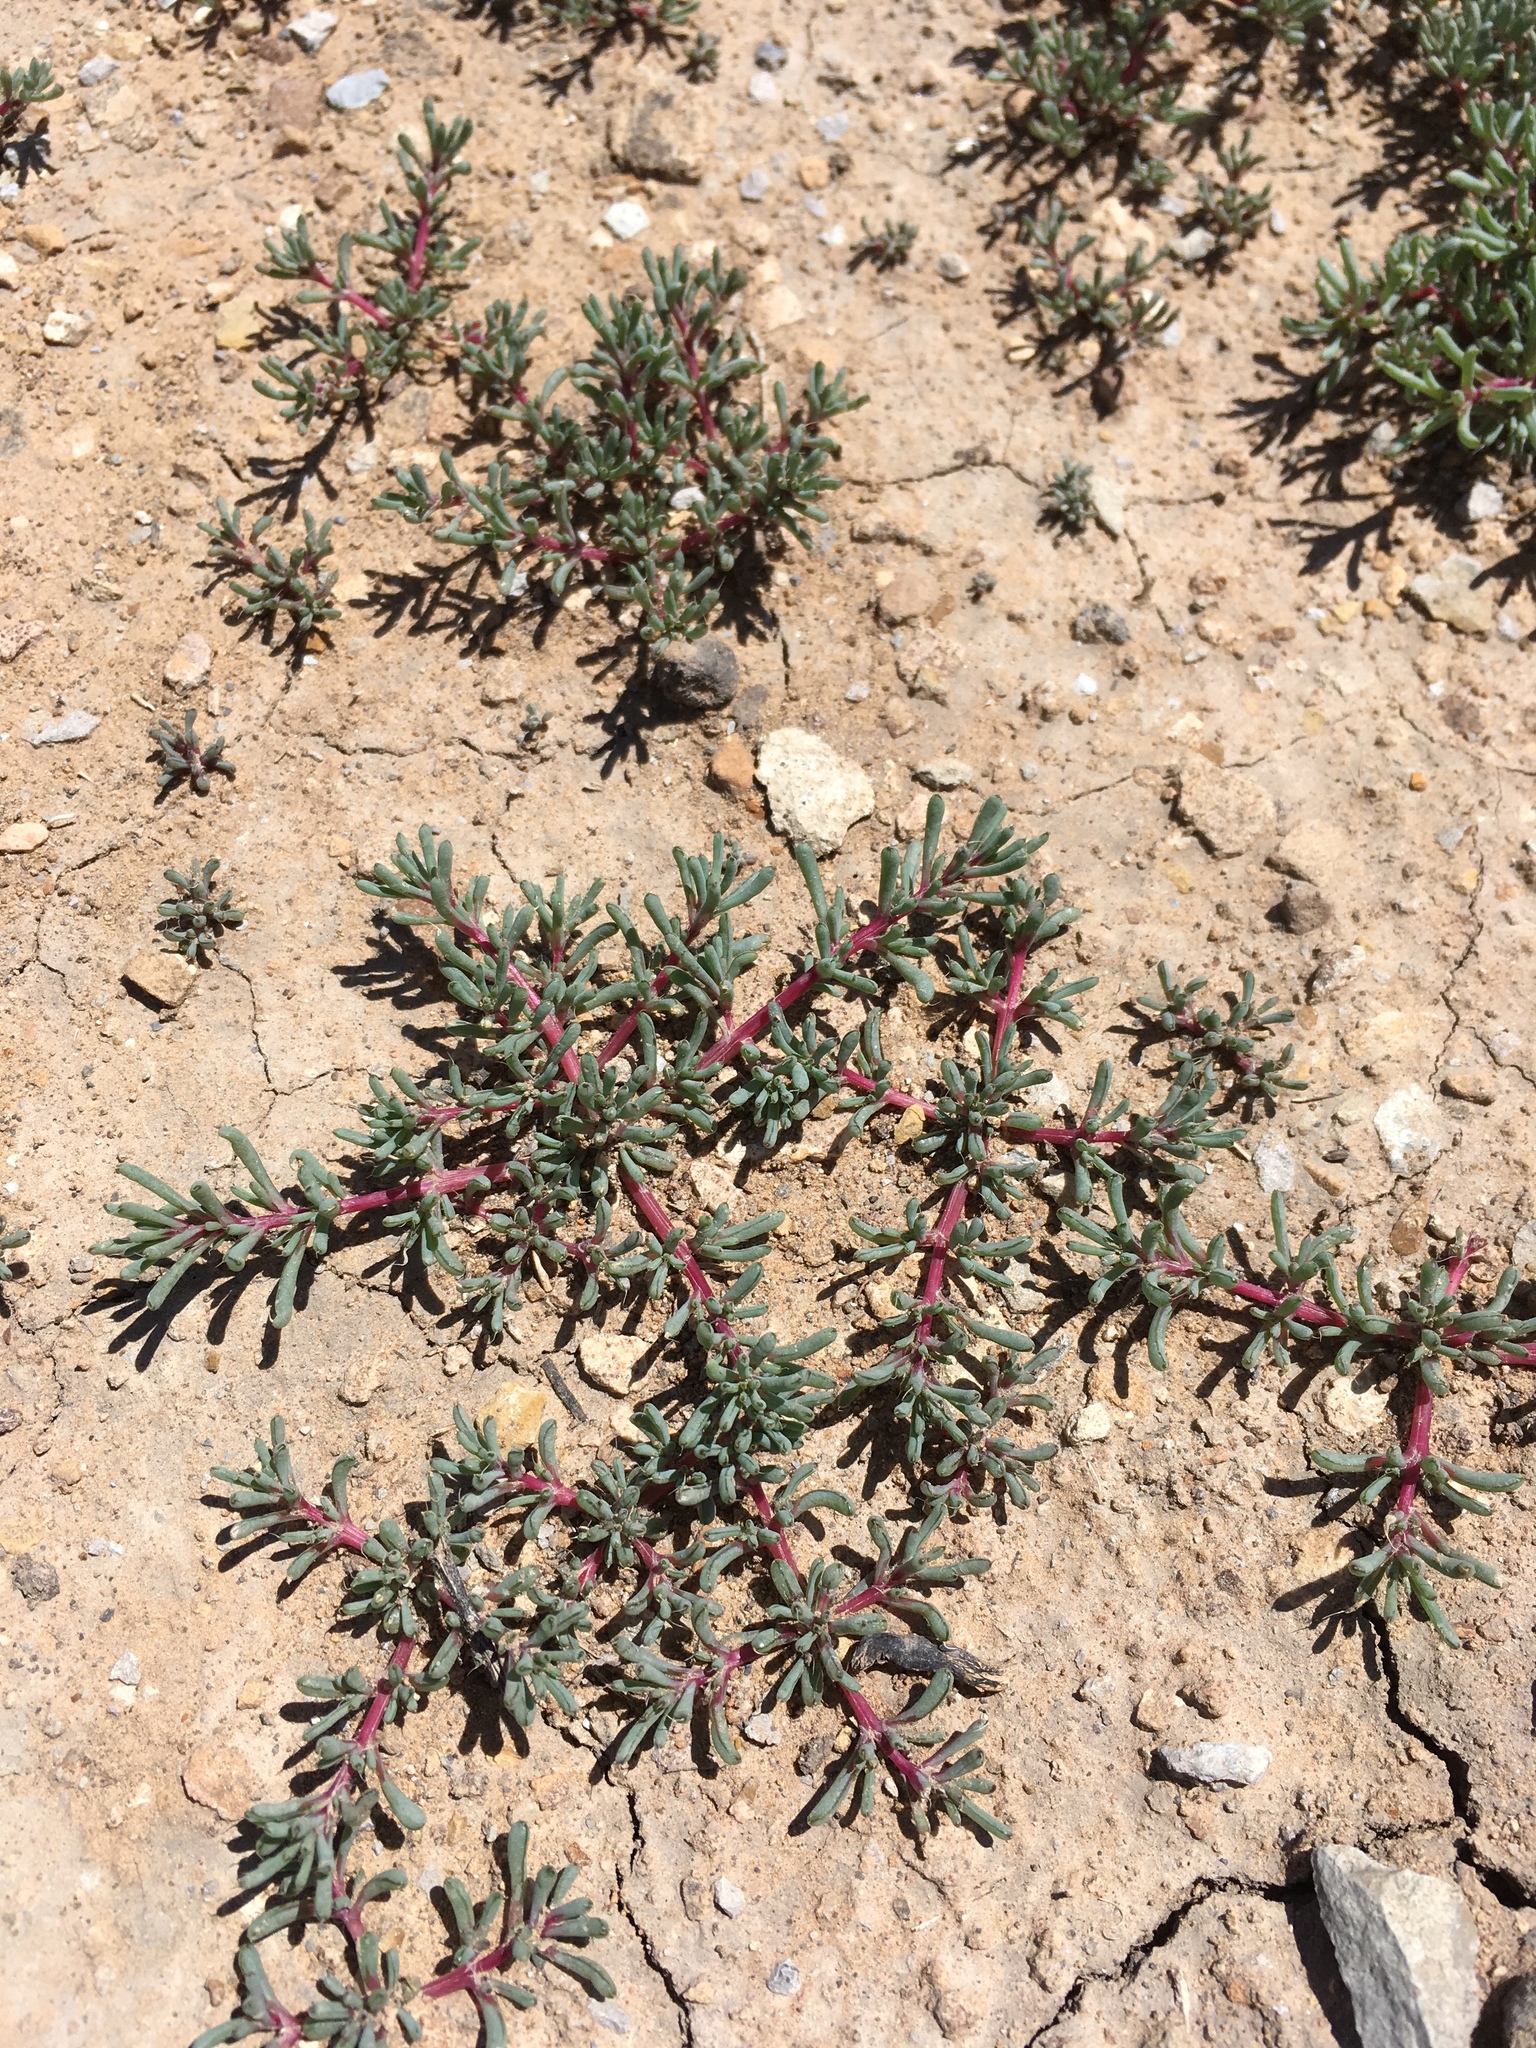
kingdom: Plantae
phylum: Tracheophyta
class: Magnoliopsida
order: Caryophyllales
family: Amaranthaceae
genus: Halogeton
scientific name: Halogeton glomeratus
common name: Saltlover
